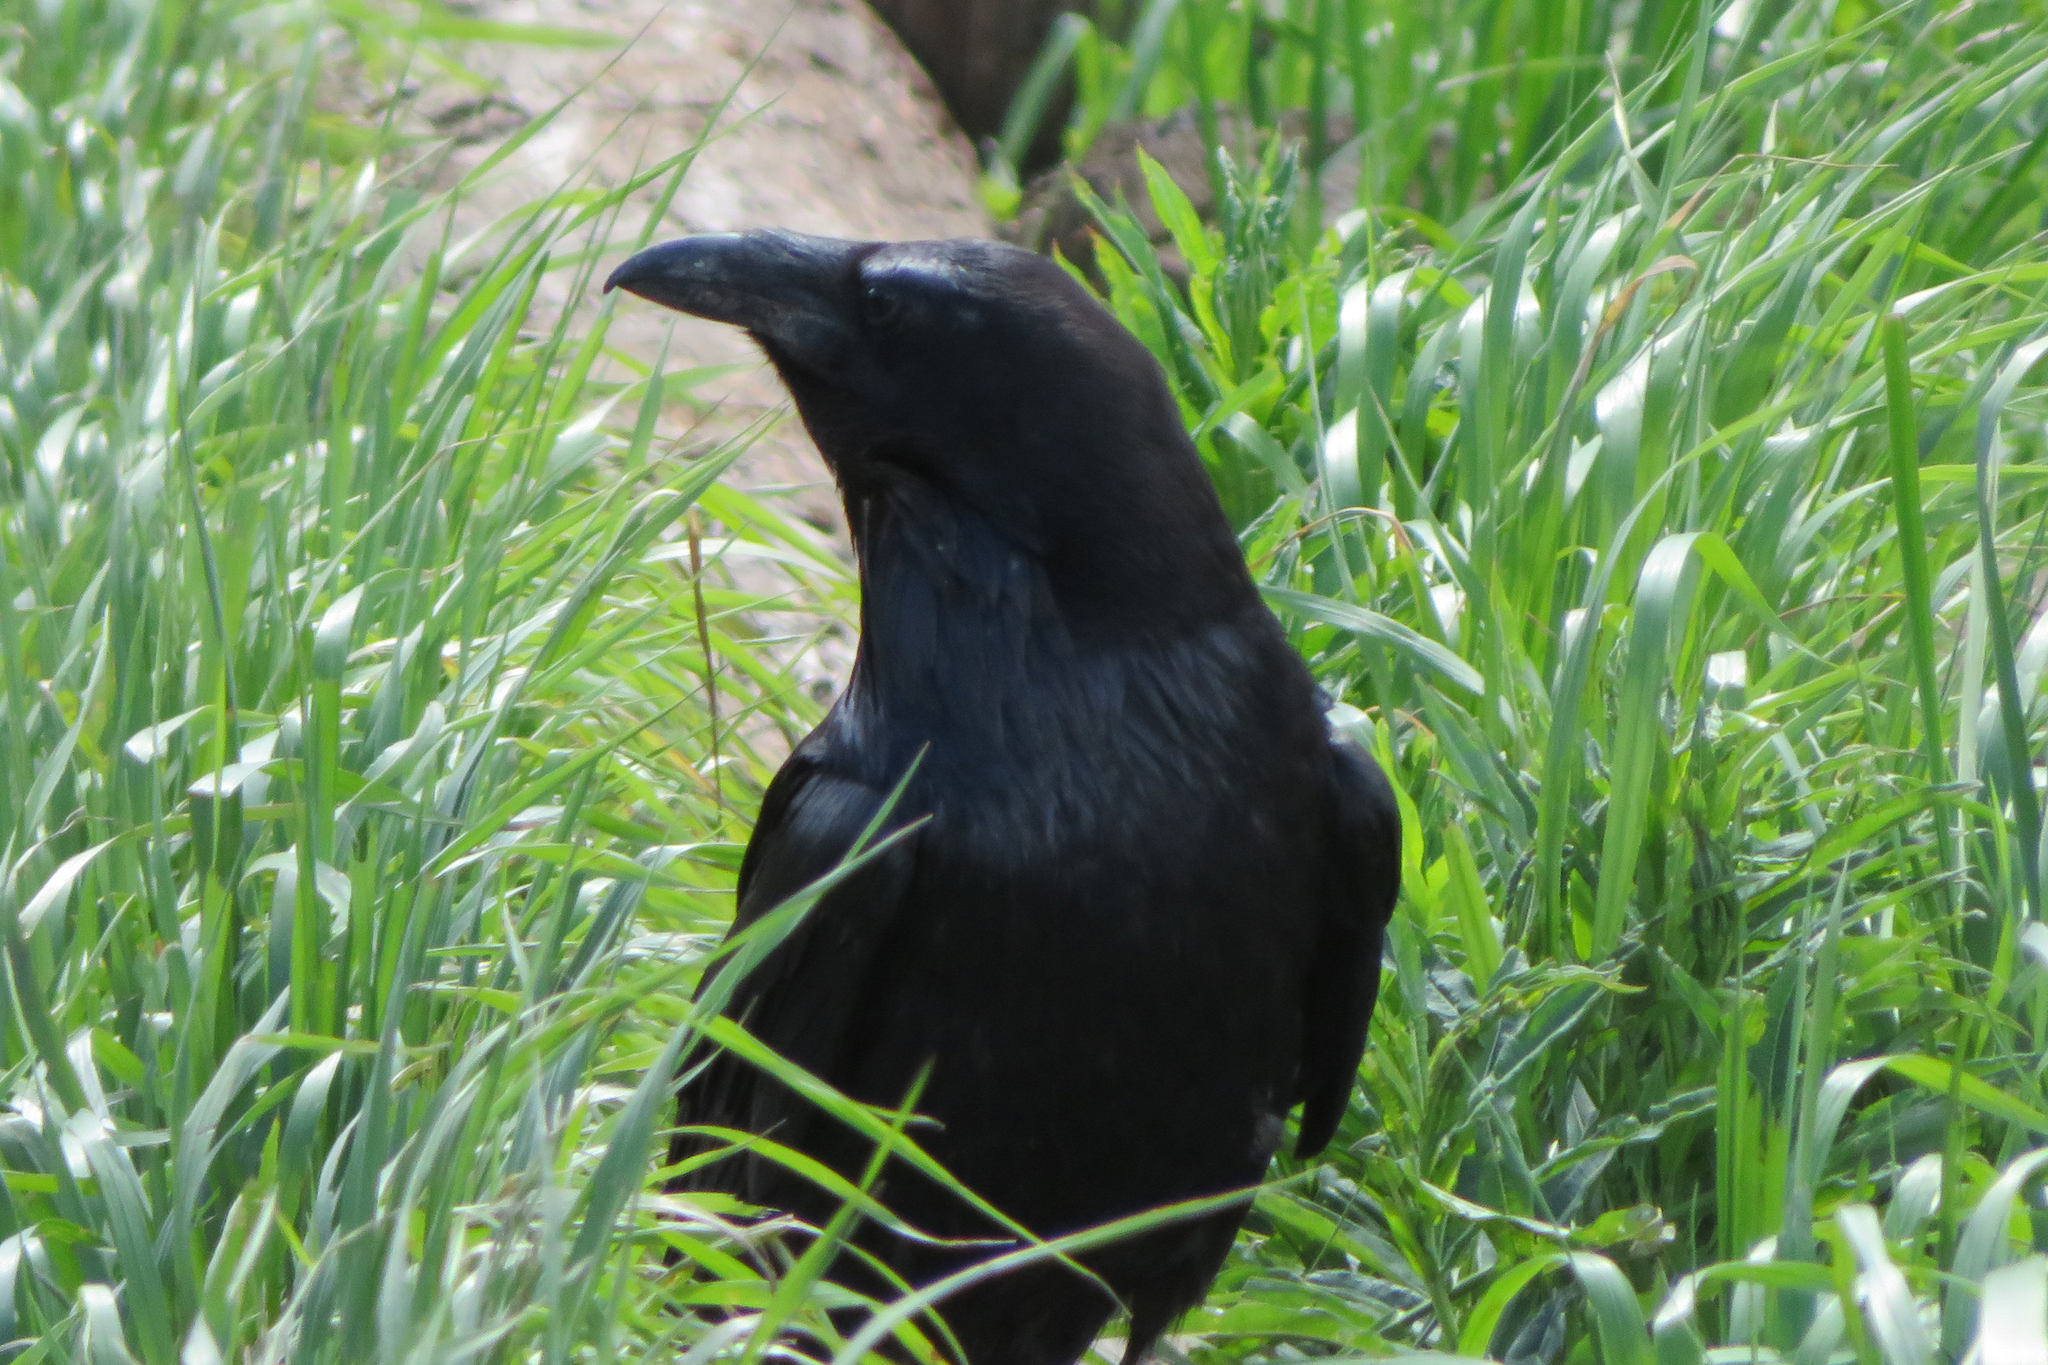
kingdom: Animalia
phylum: Chordata
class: Aves
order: Passeriformes
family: Corvidae
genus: Corvus
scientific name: Corvus corax
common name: Common raven
